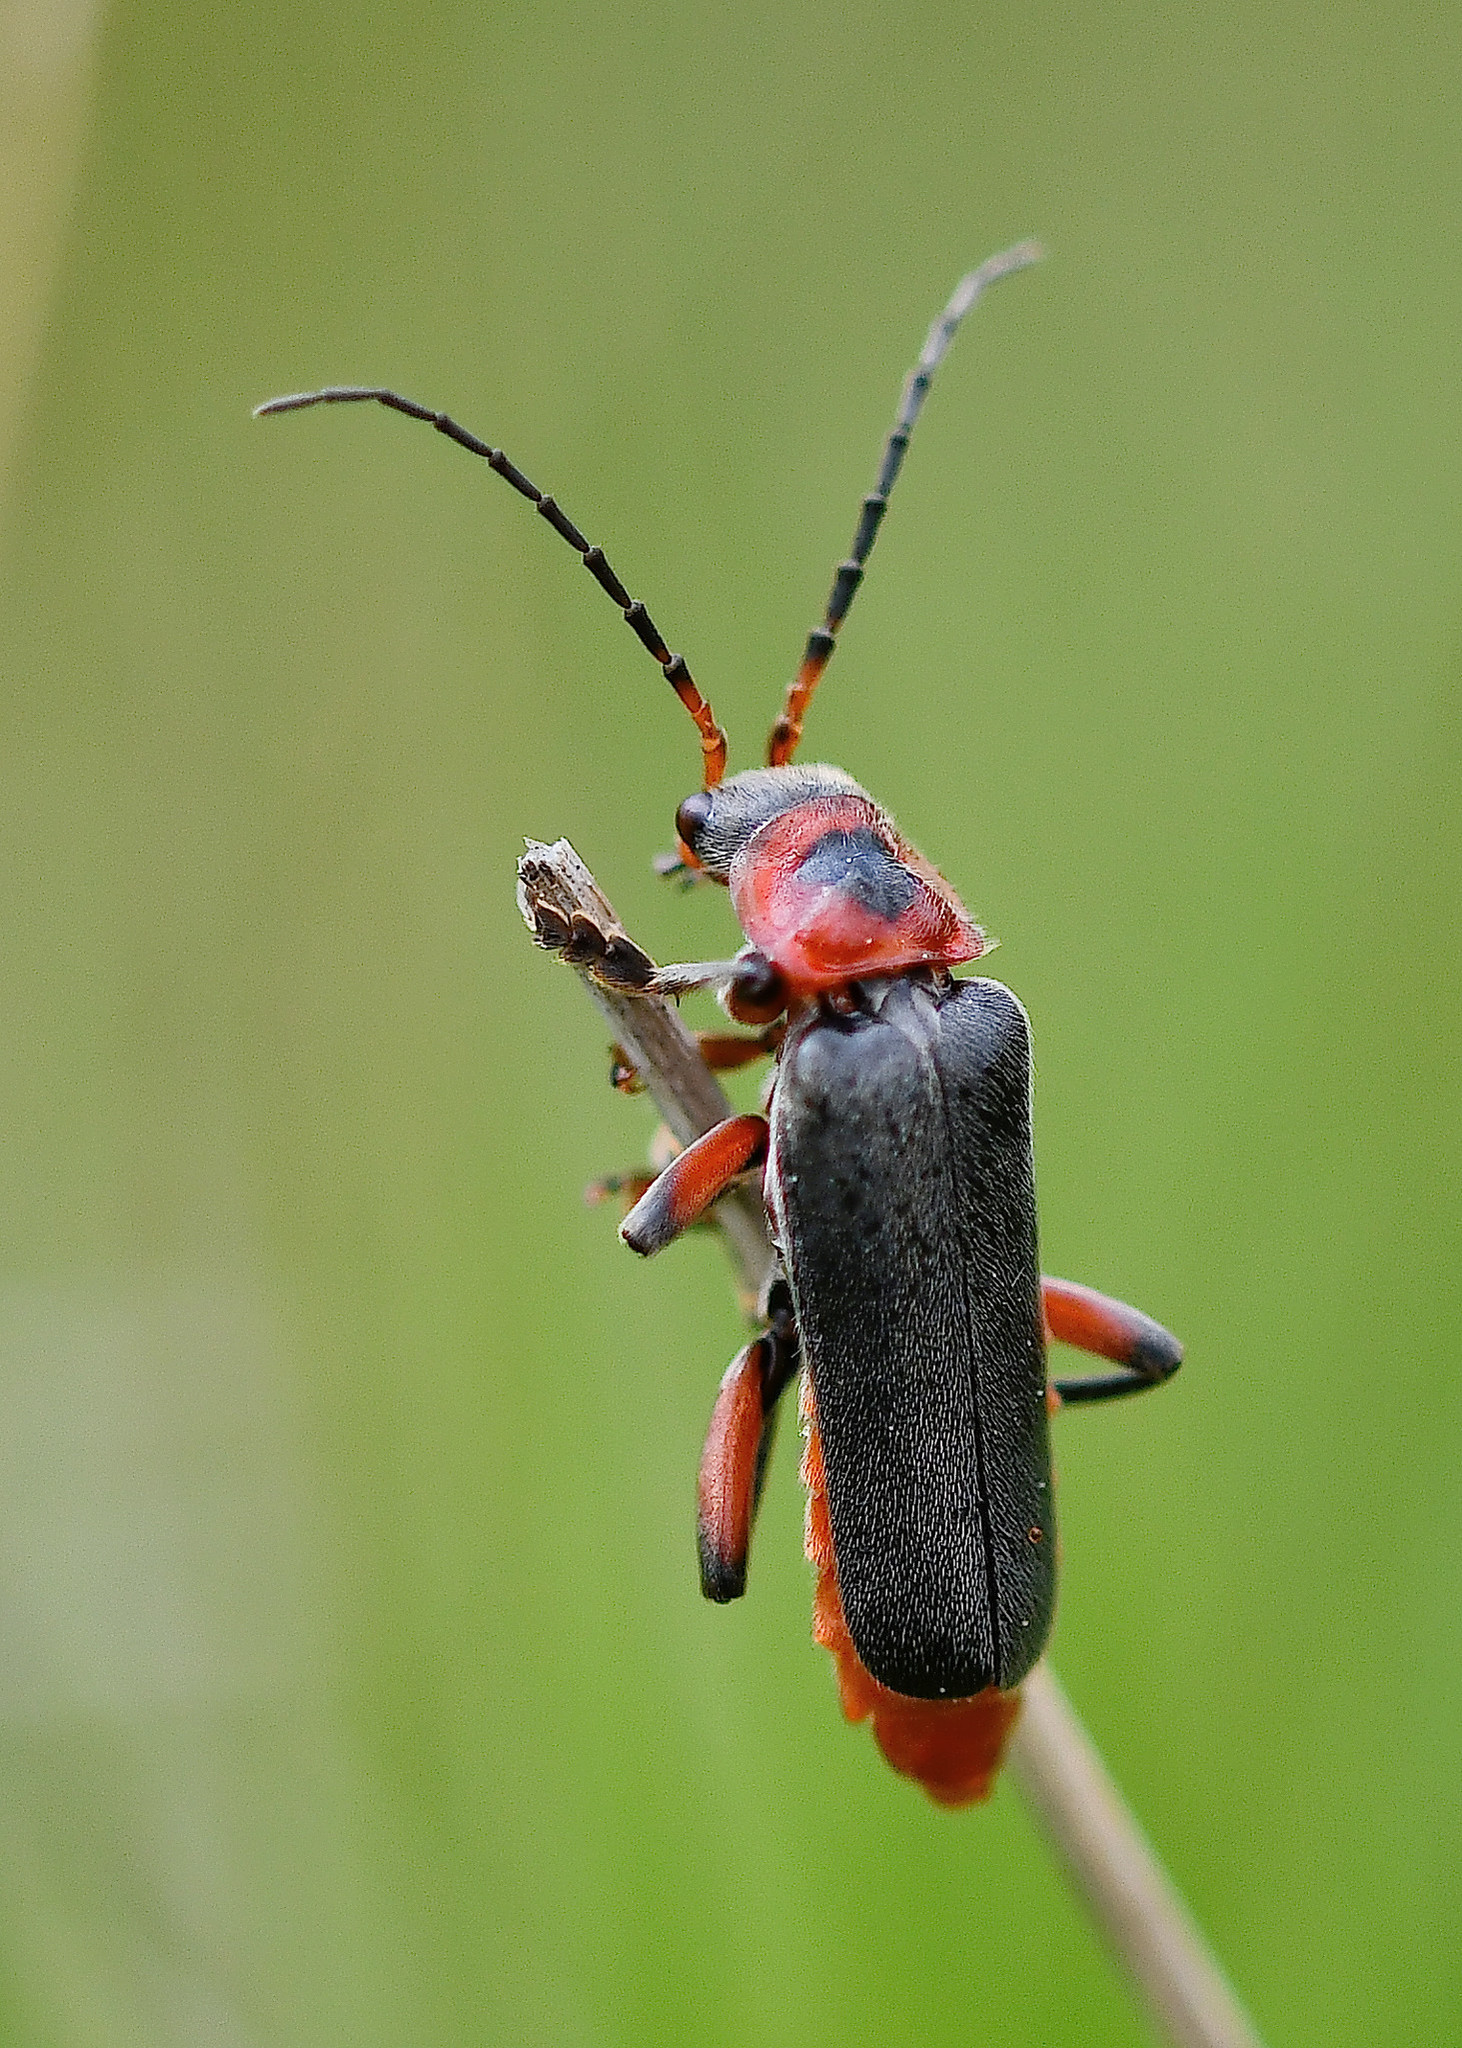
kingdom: Animalia
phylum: Arthropoda
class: Insecta
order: Coleoptera
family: Cantharidae
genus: Cantharis
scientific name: Cantharis rustica
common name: Soldier beetle
